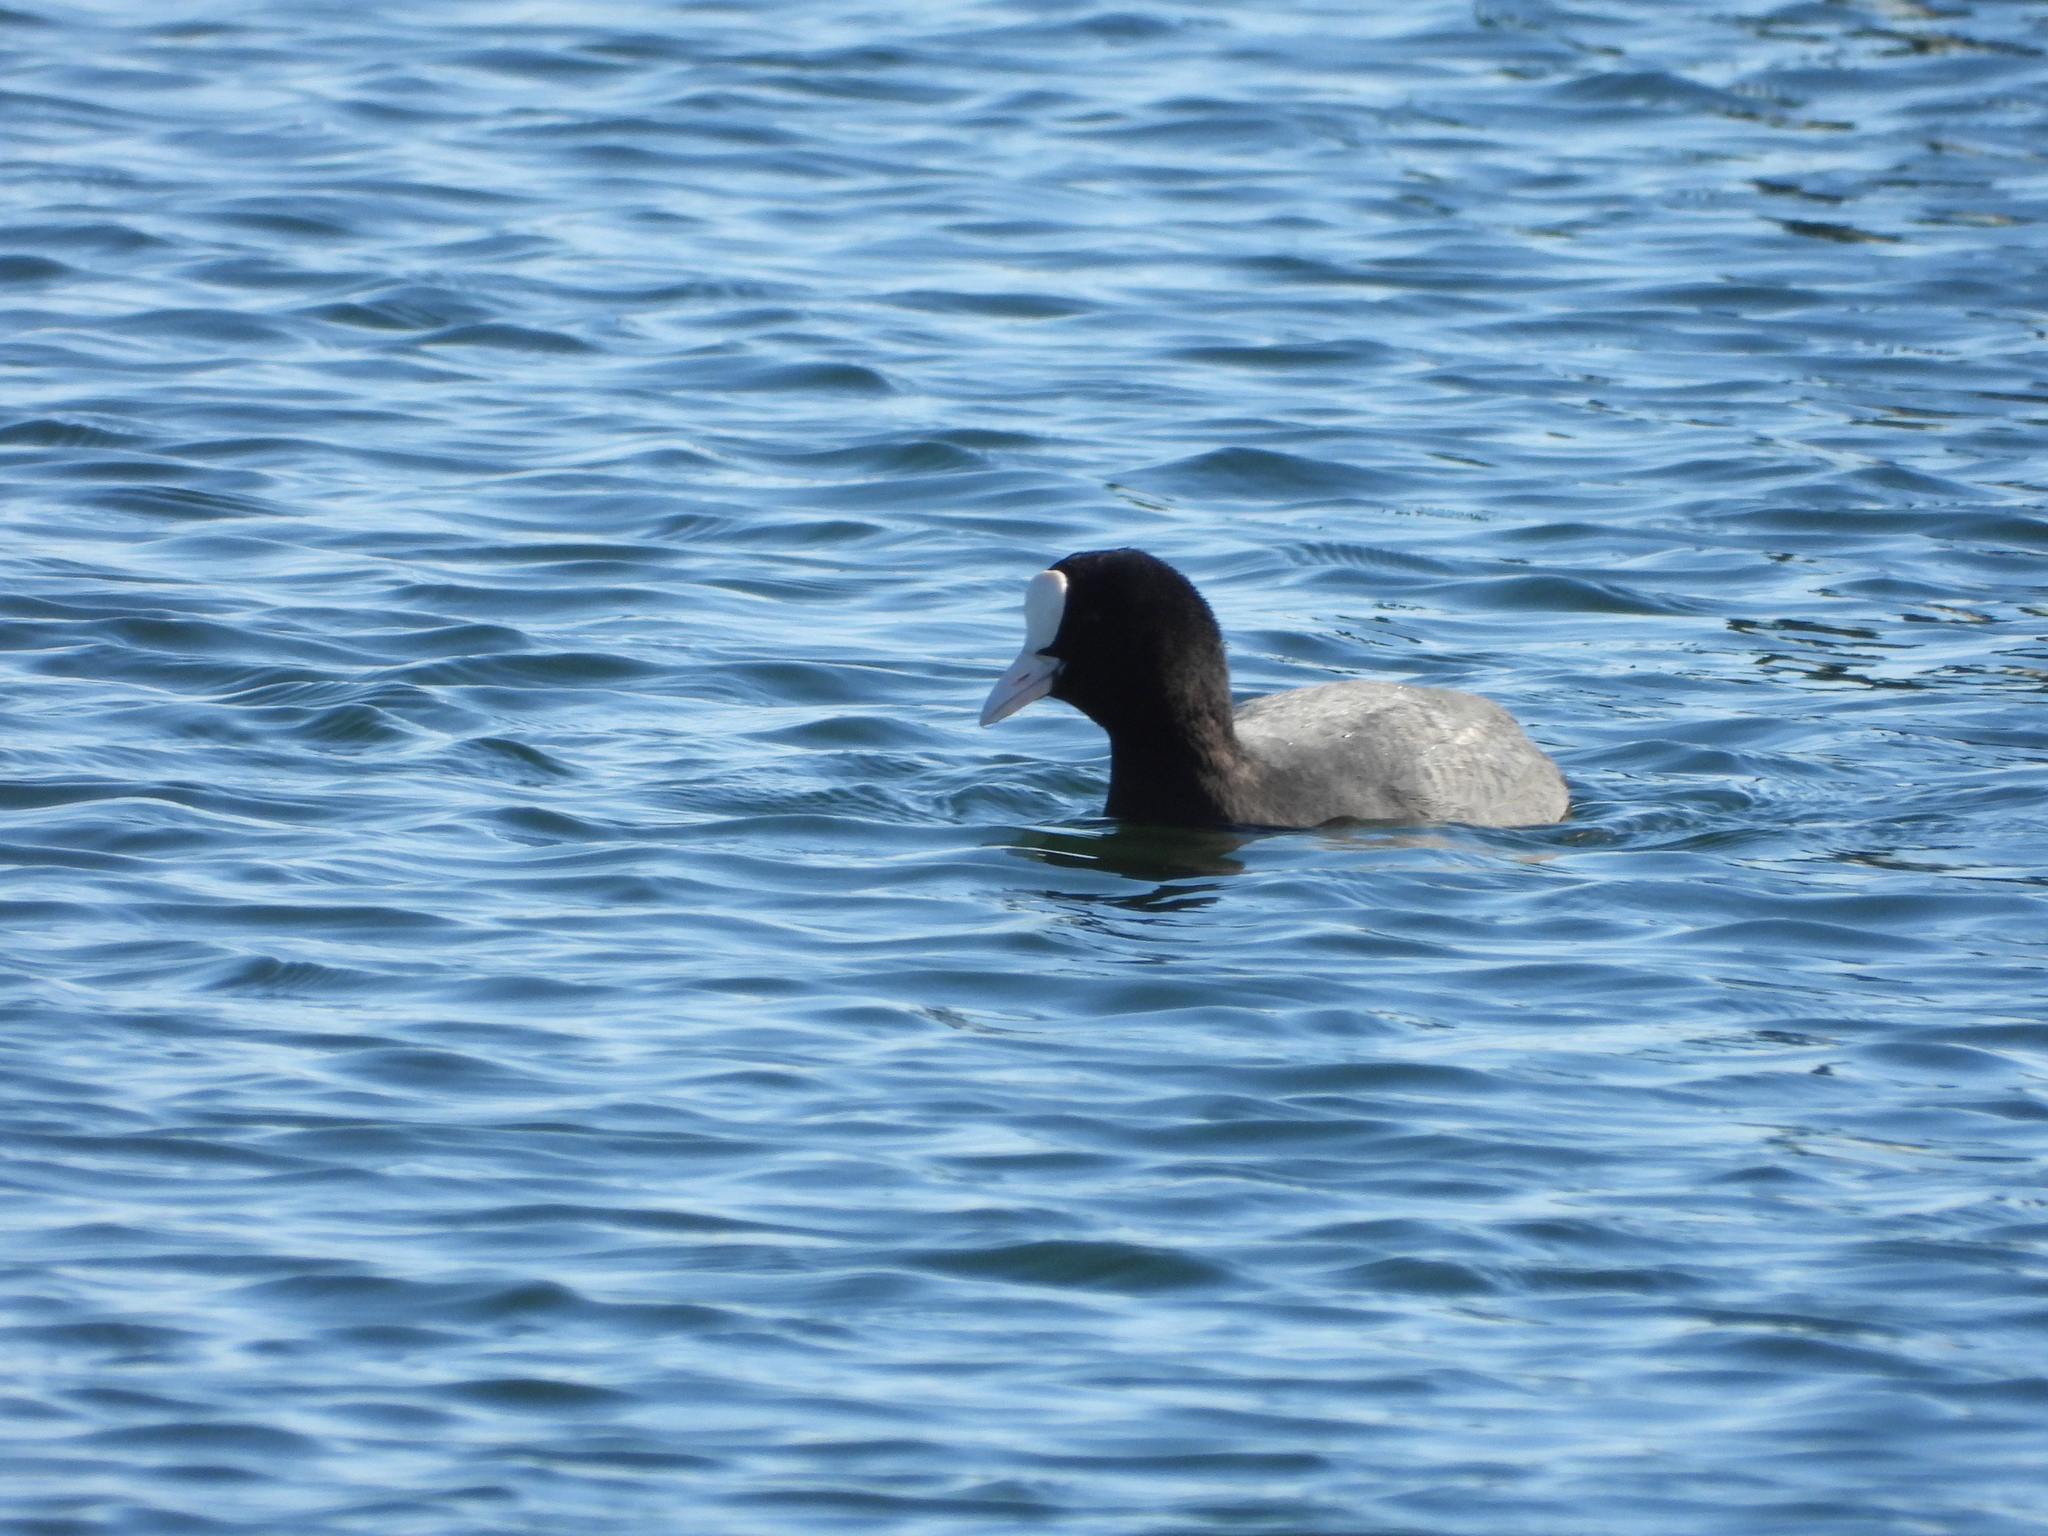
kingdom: Animalia
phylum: Chordata
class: Aves
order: Gruiformes
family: Rallidae
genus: Fulica
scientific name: Fulica atra
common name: Eurasian coot
